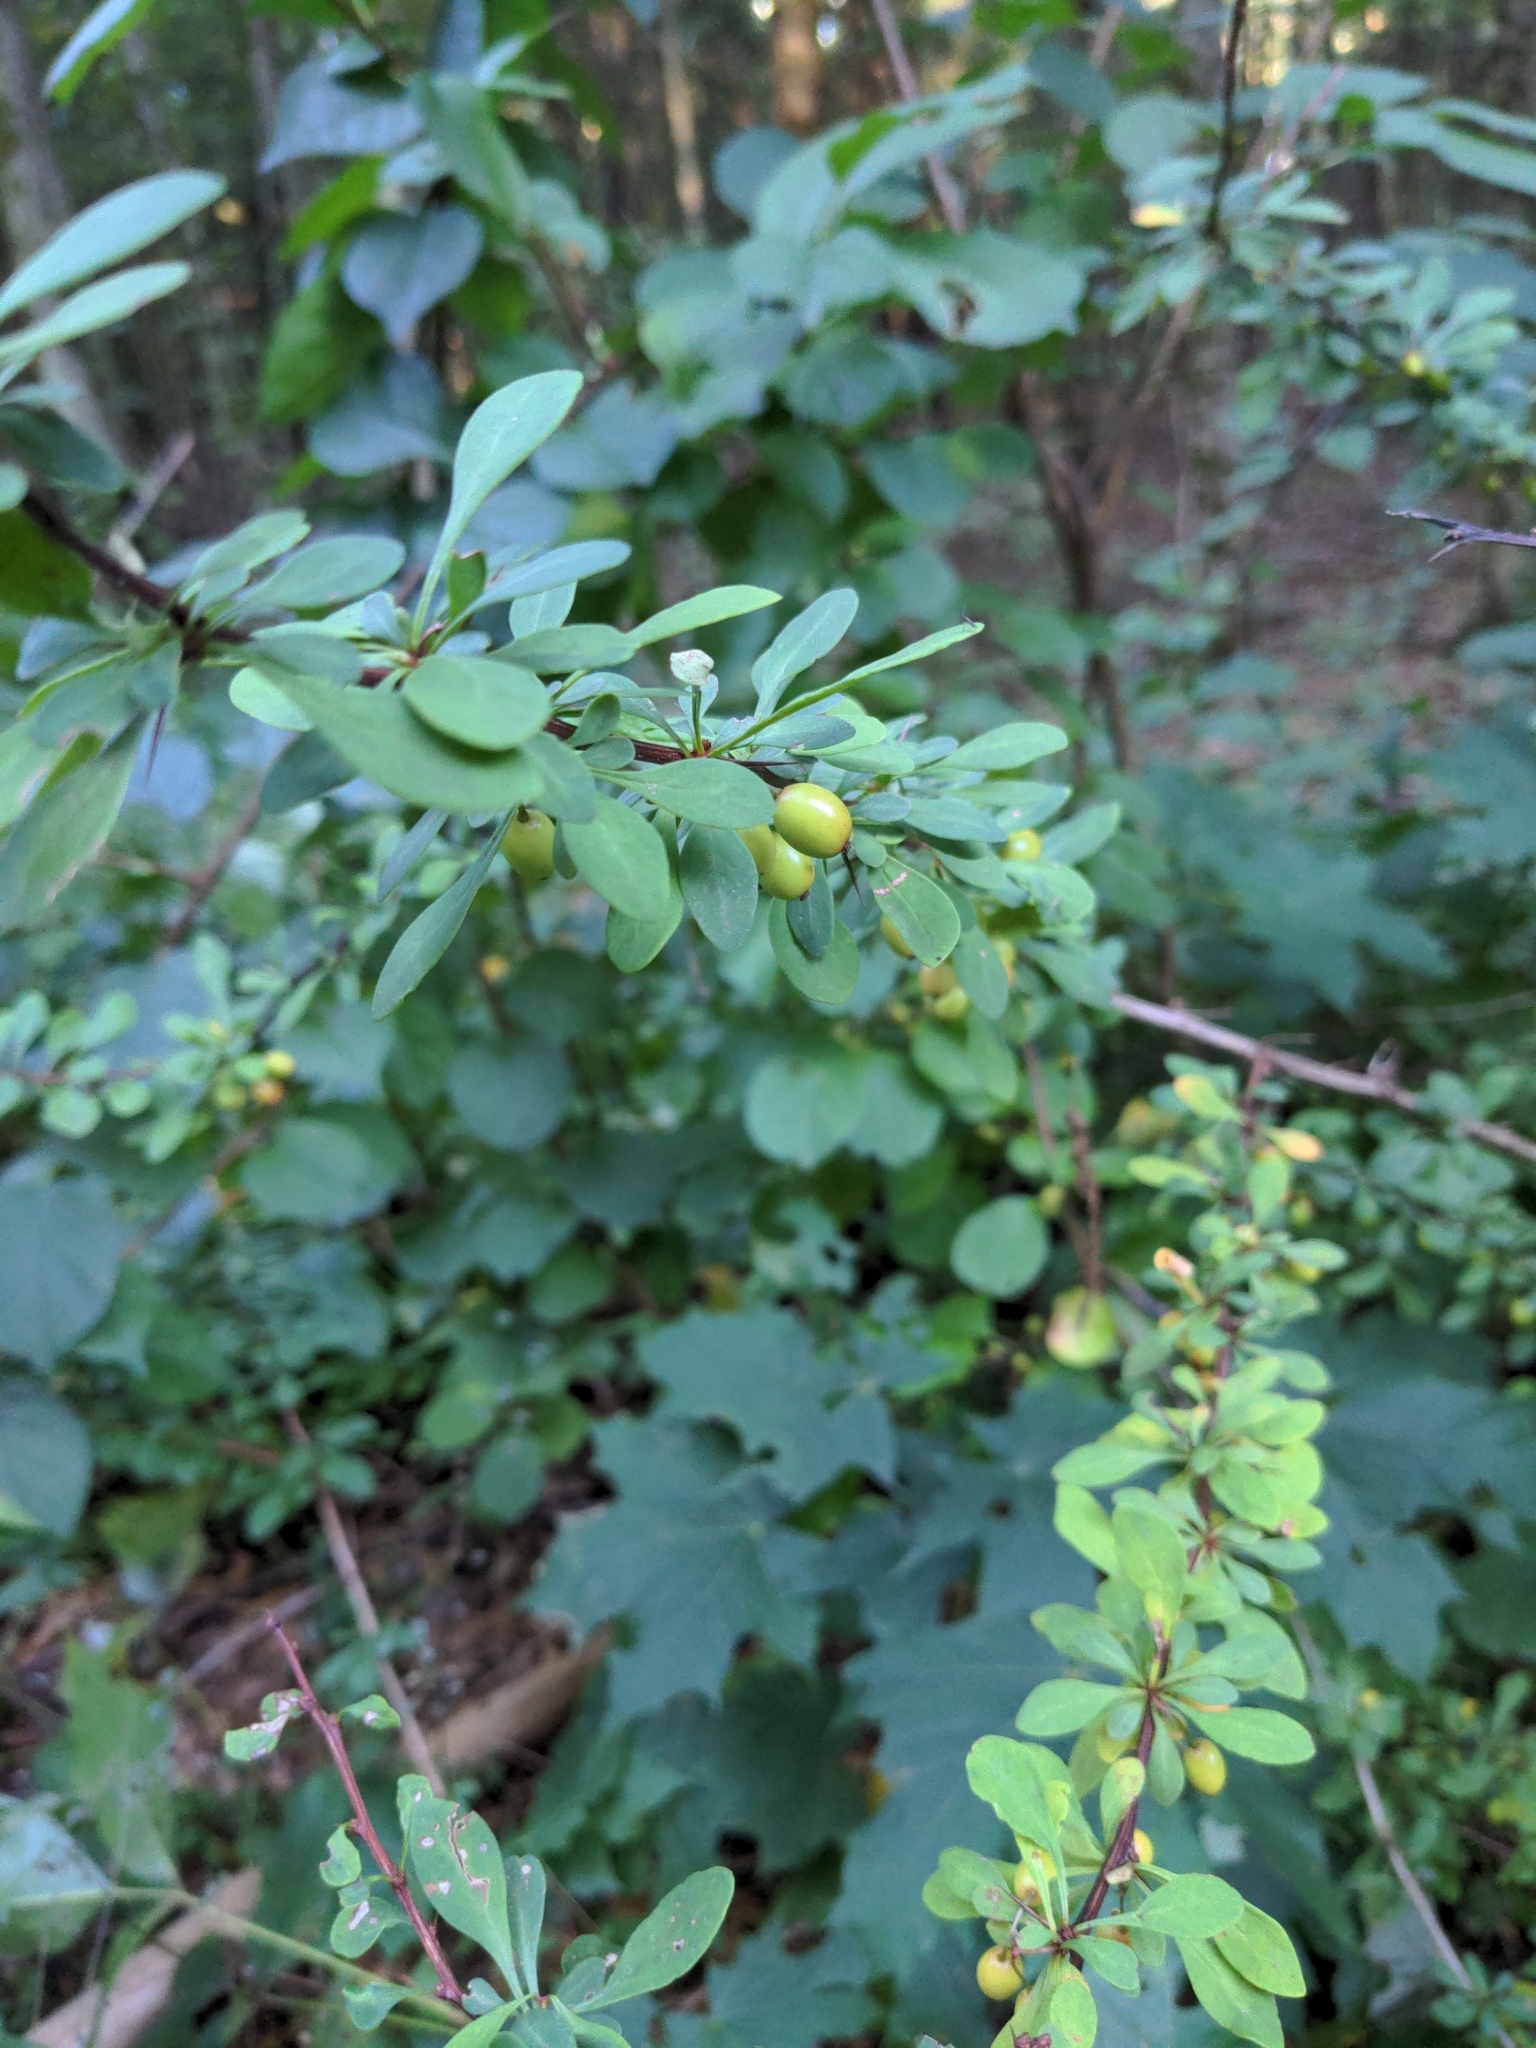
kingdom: Plantae
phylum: Tracheophyta
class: Magnoliopsida
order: Ranunculales
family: Berberidaceae
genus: Berberis
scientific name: Berberis thunbergii
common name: Japanese barberry
